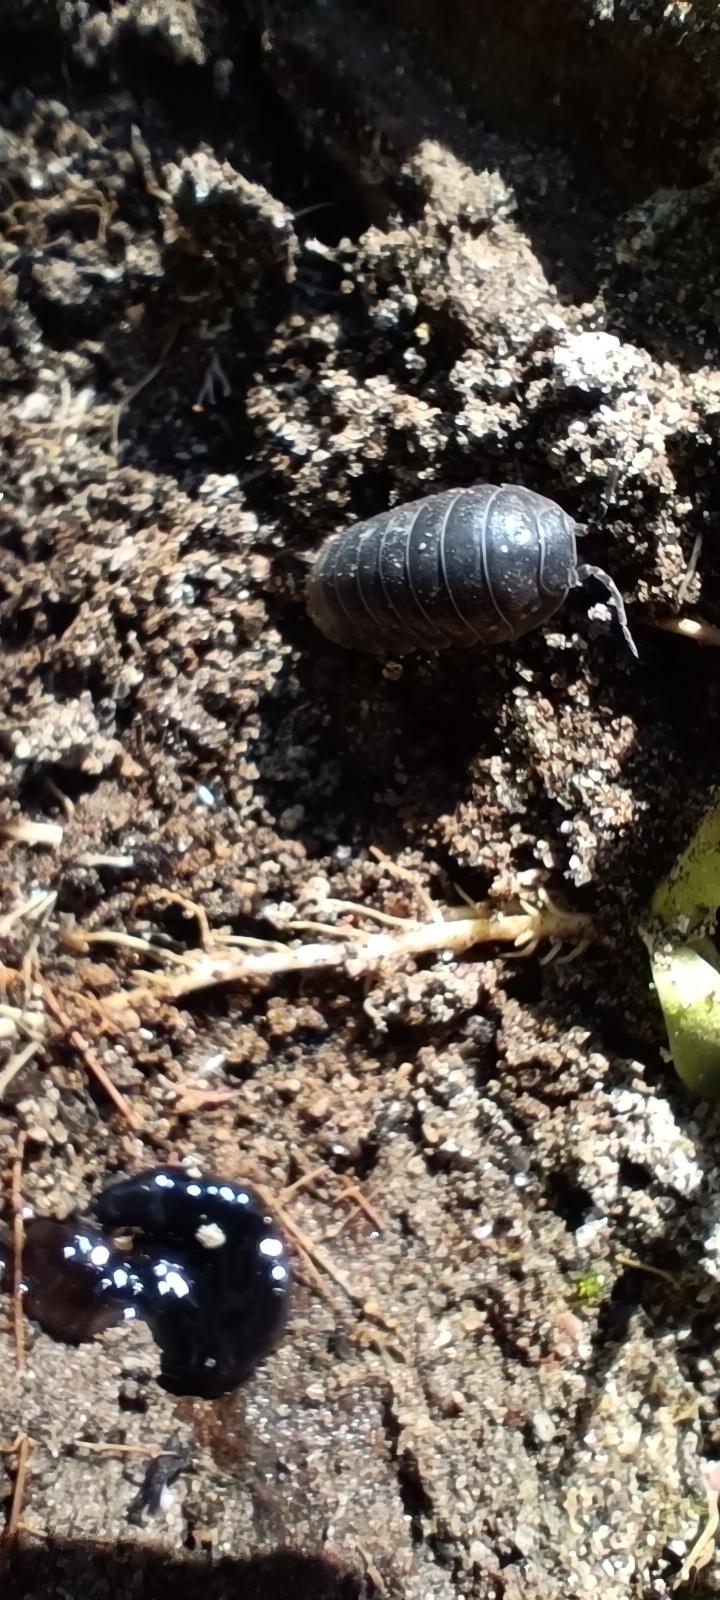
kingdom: Animalia
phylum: Arthropoda
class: Malacostraca
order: Isopoda
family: Armadillidiidae
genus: Armadillidium
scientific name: Armadillidium vulgare
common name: Common pill woodlouse
